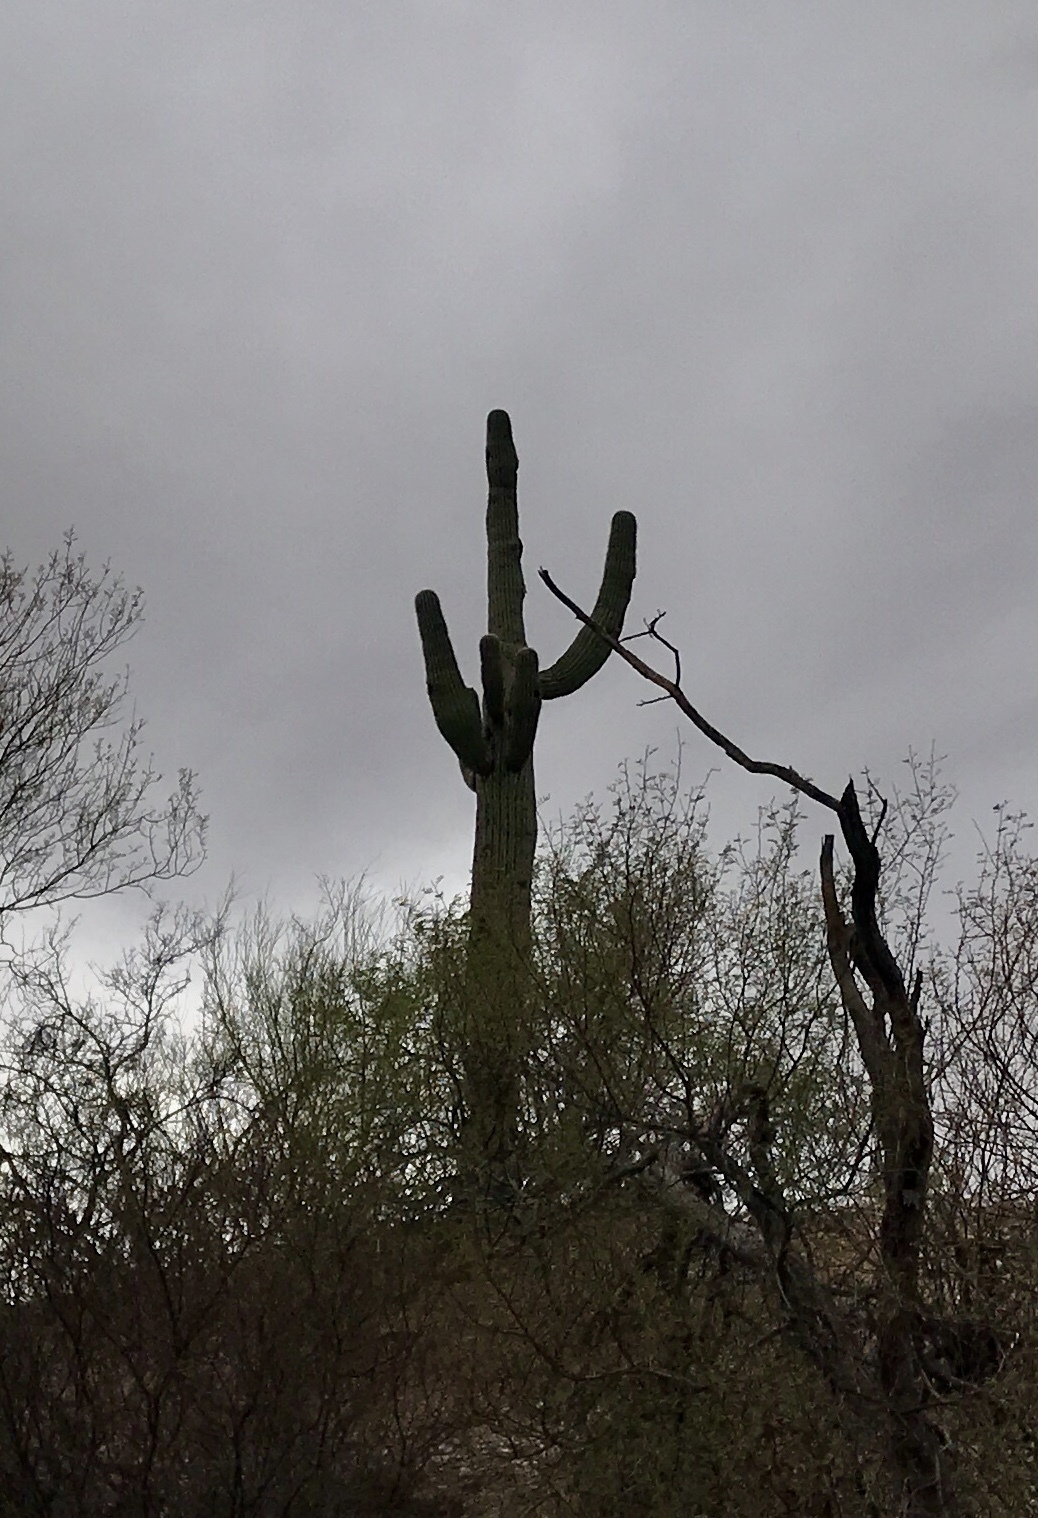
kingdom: Plantae
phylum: Tracheophyta
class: Magnoliopsida
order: Caryophyllales
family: Cactaceae
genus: Carnegiea
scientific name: Carnegiea gigantea
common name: Saguaro
